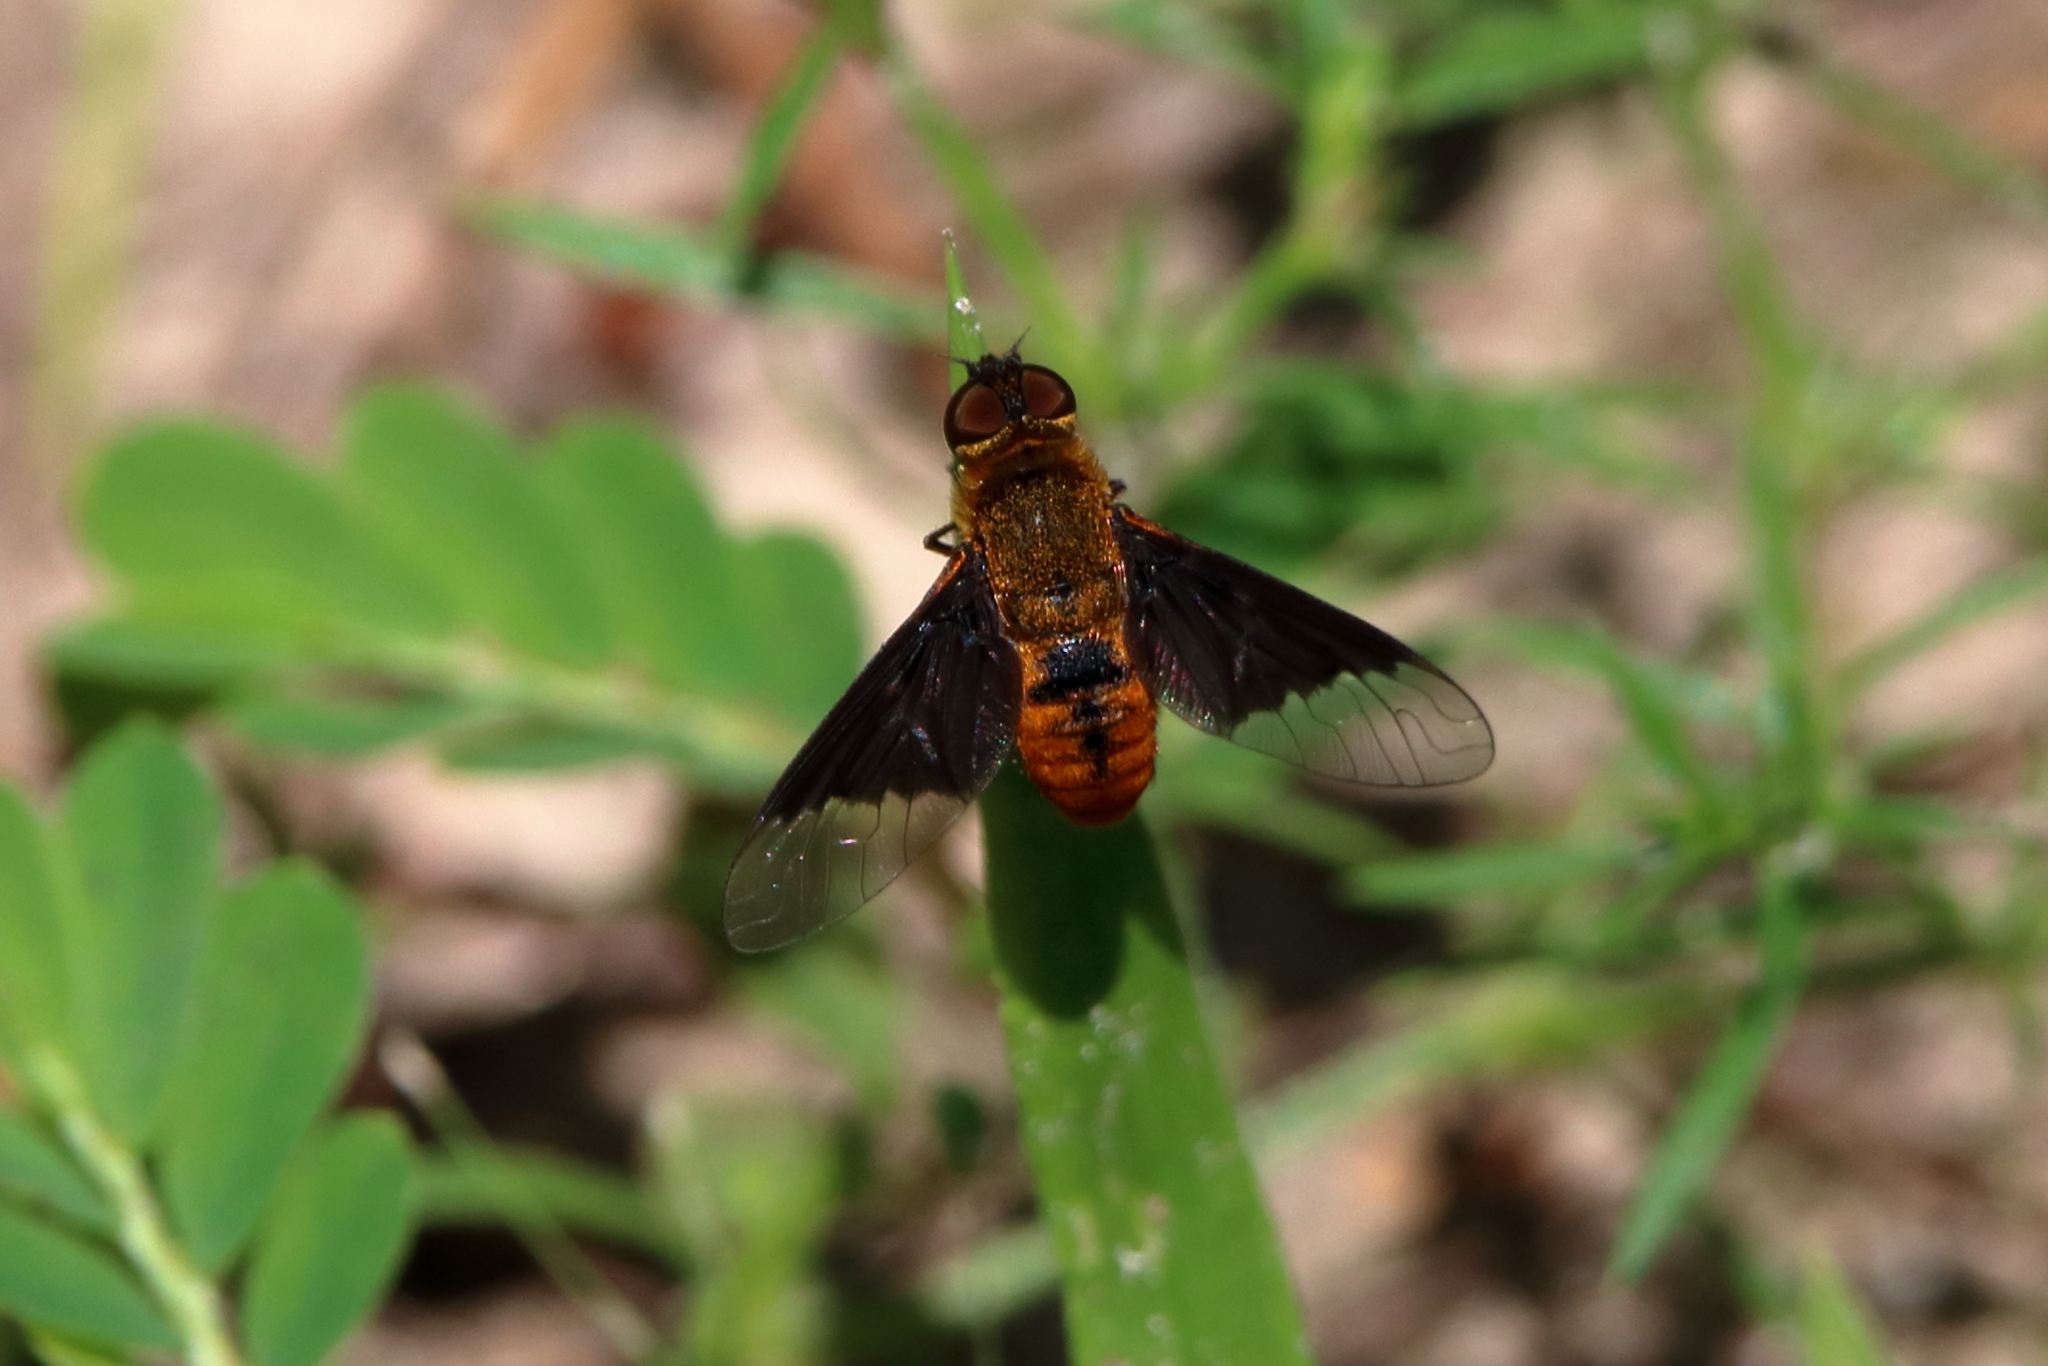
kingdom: Animalia
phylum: Arthropoda
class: Insecta
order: Diptera
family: Bombyliidae
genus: Chrysanthrax
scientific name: Chrysanthrax cypris
